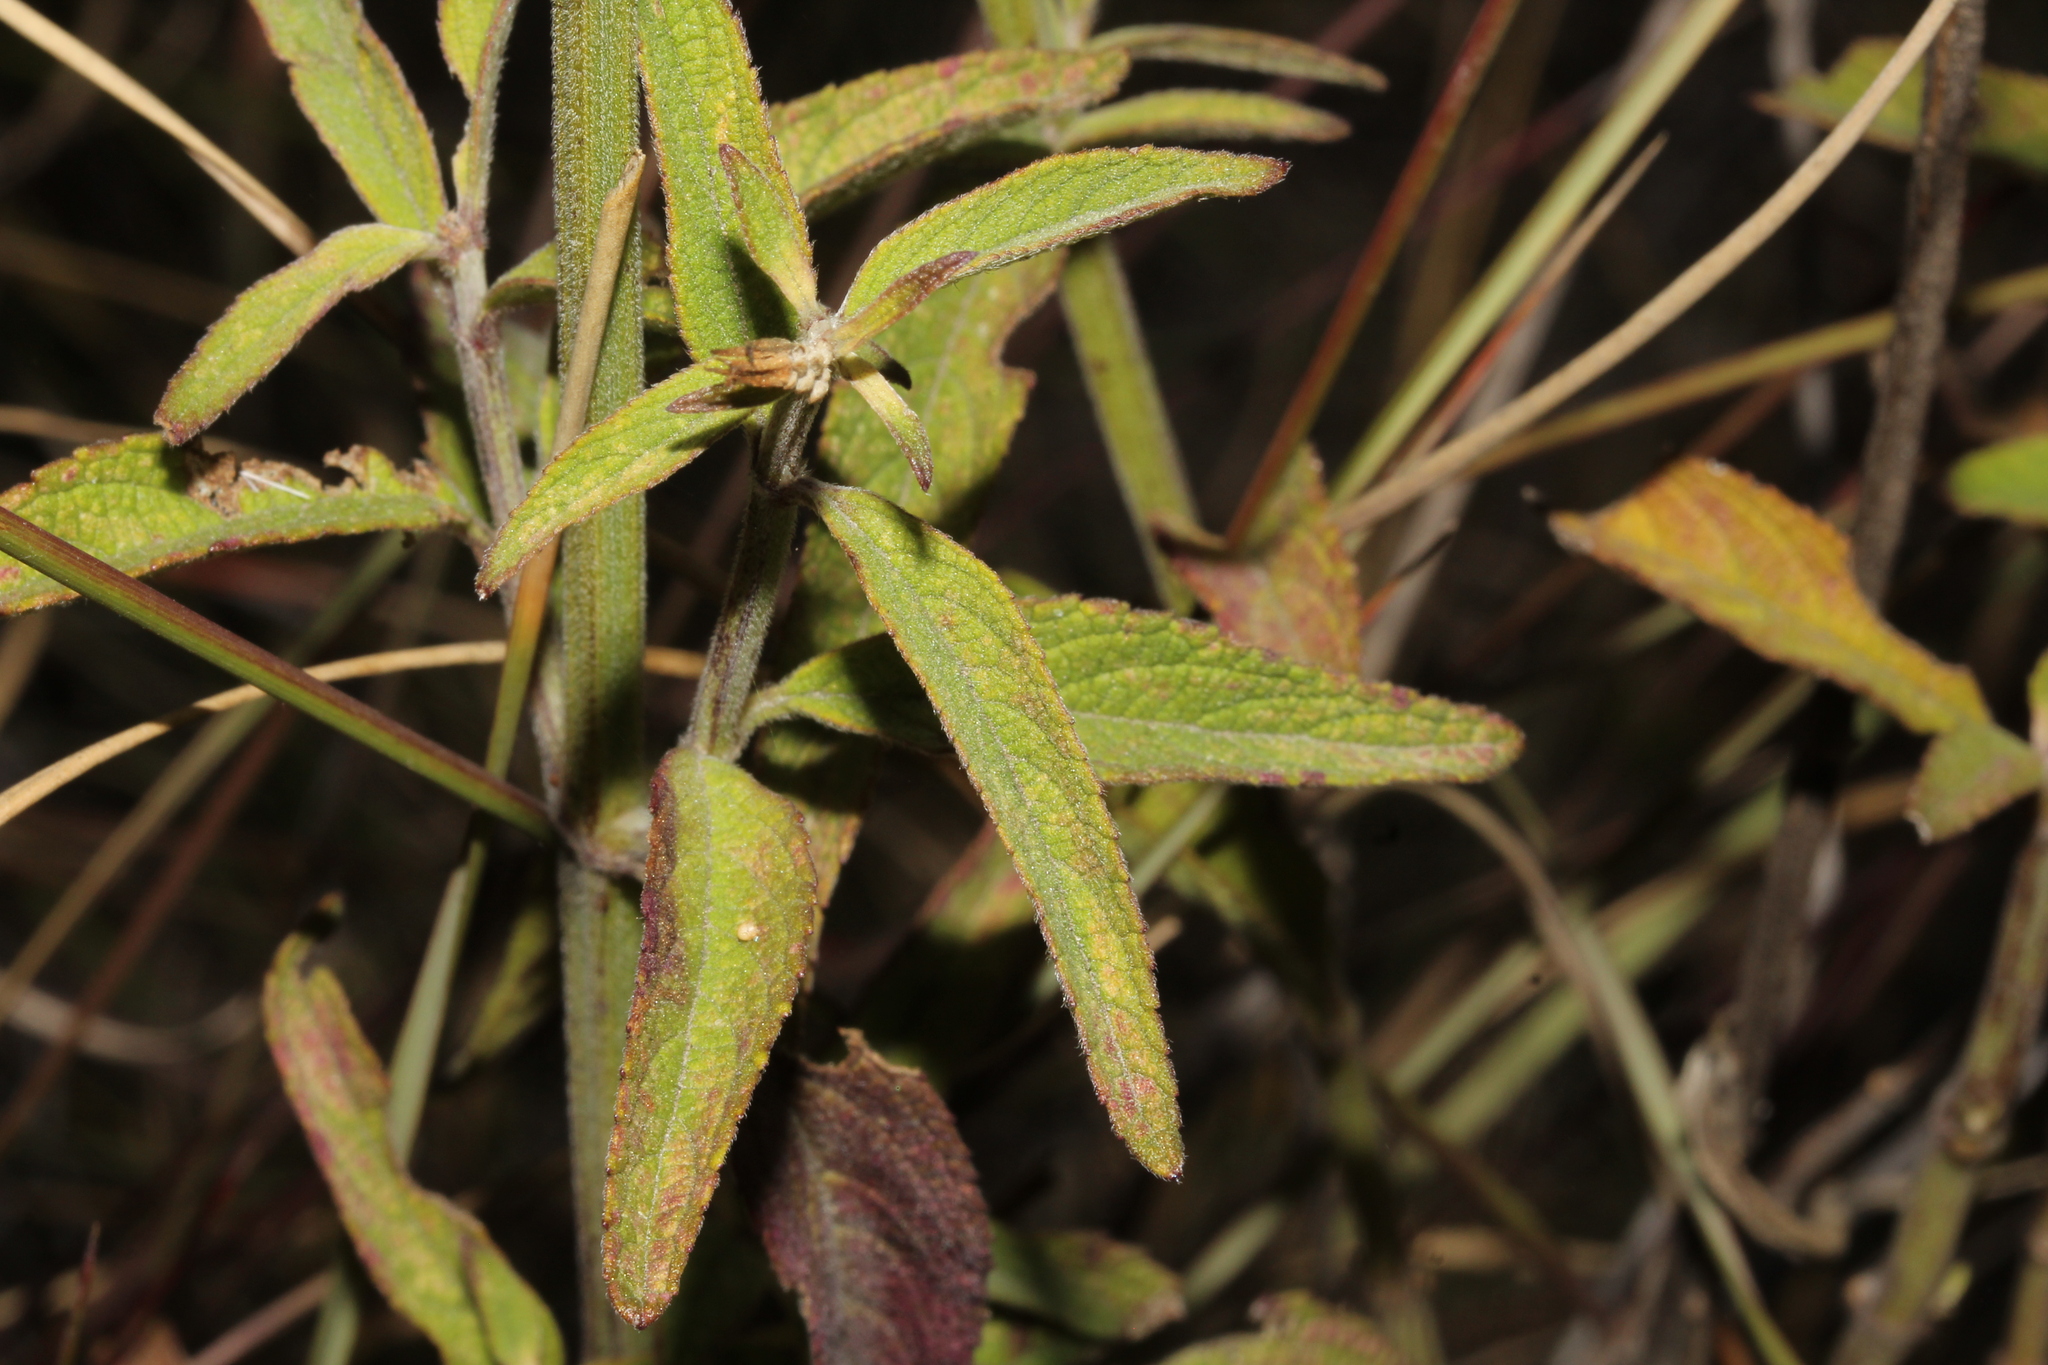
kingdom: Plantae
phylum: Tracheophyta
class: Magnoliopsida
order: Lamiales
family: Lamiaceae
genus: Salvia
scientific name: Salvia lavanduloides
